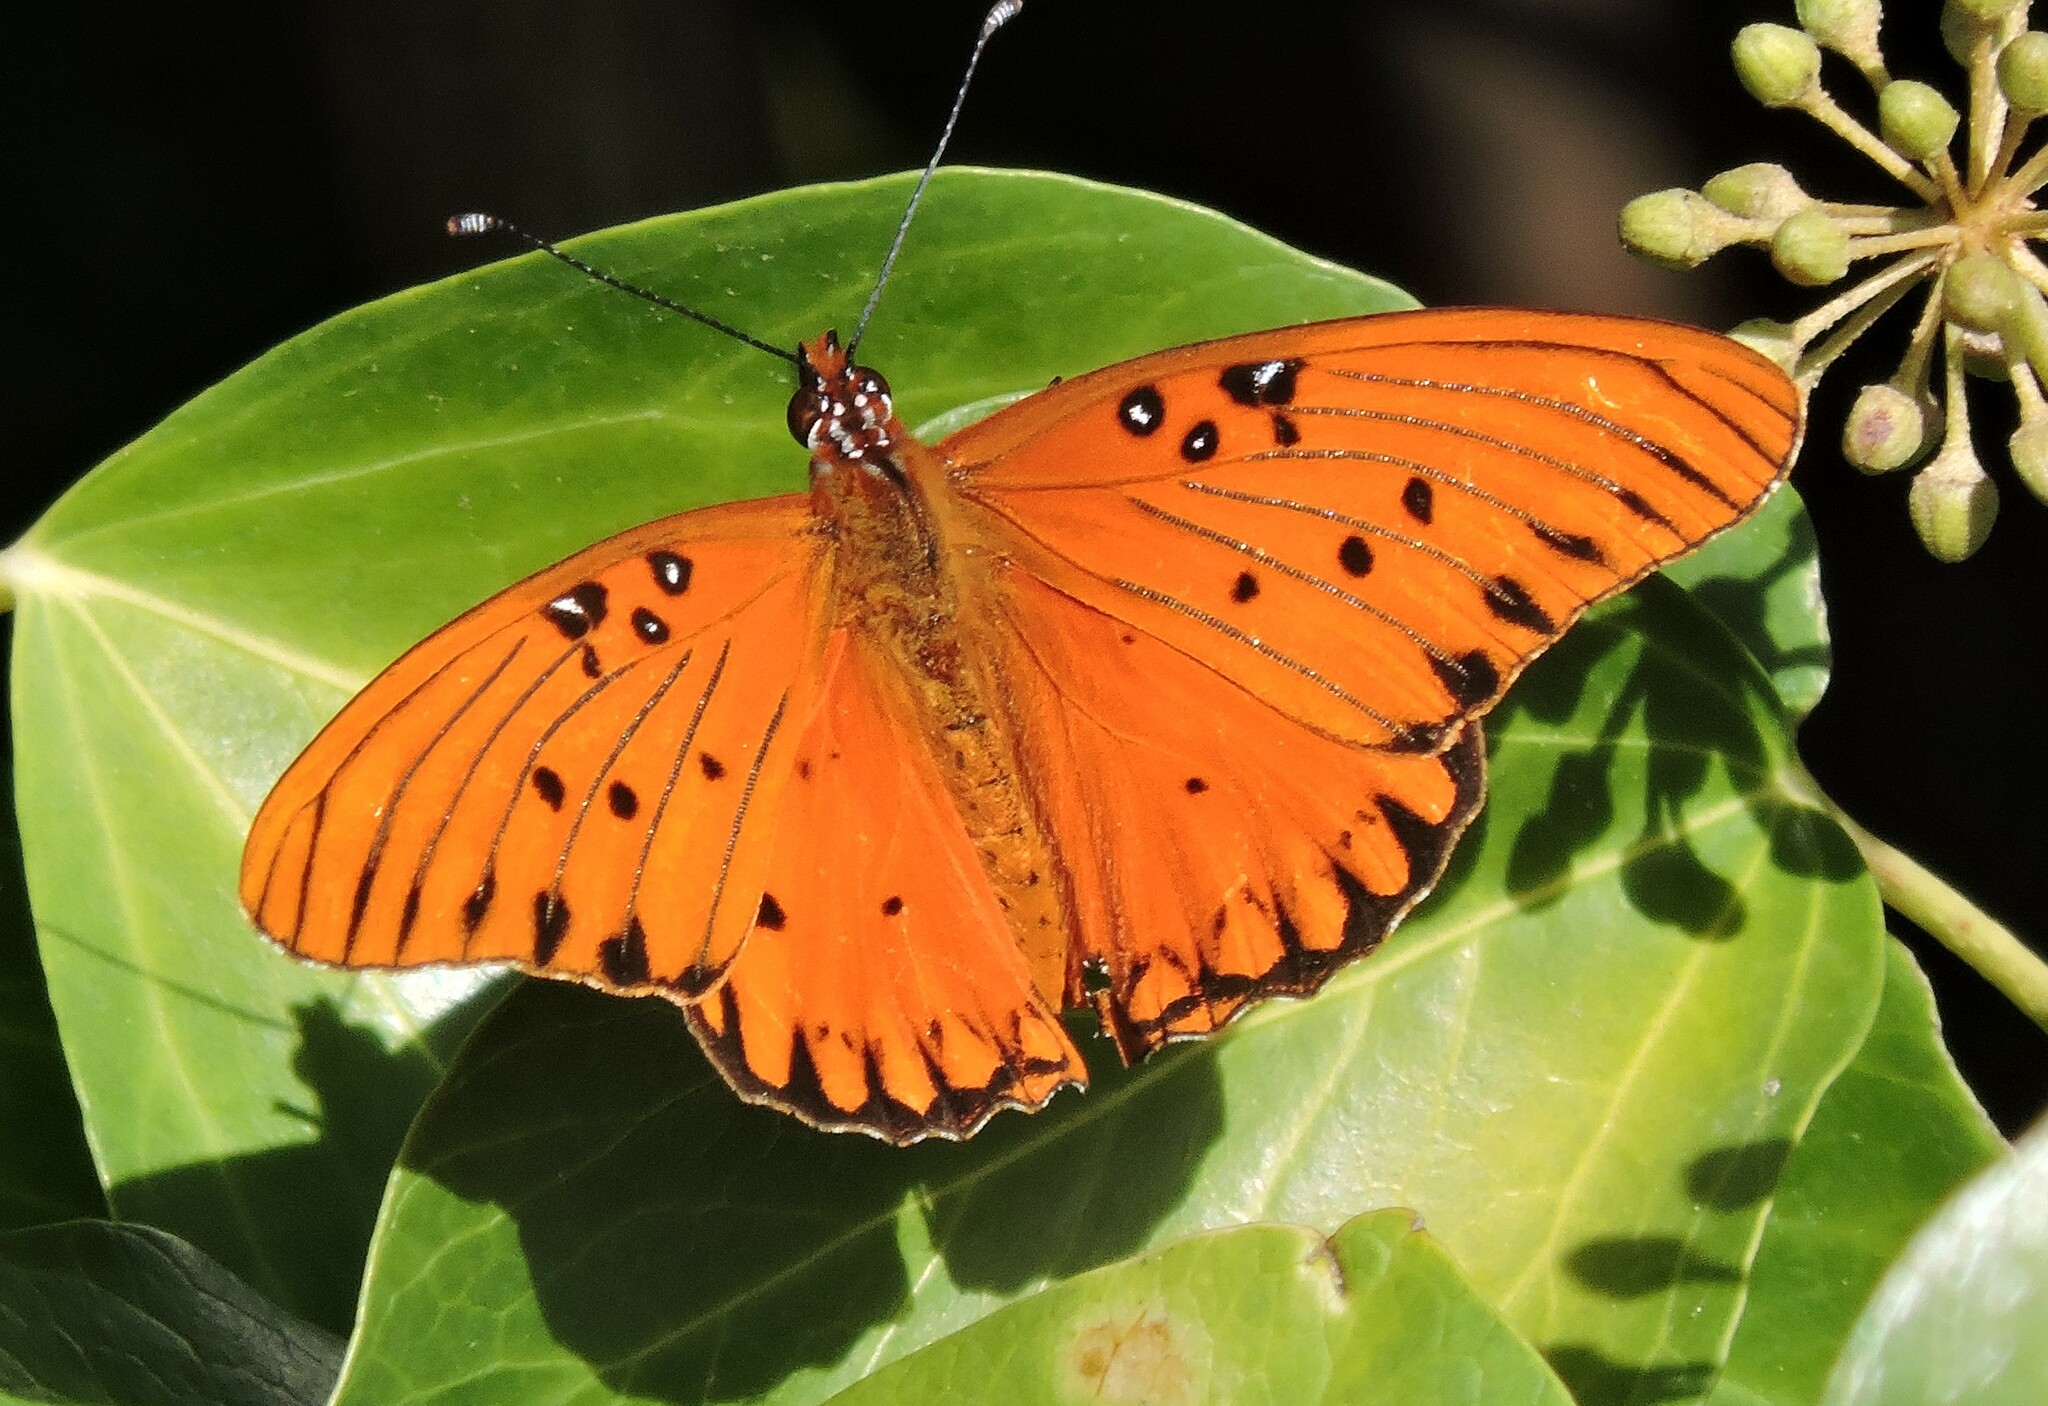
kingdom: Animalia
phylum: Arthropoda
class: Insecta
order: Lepidoptera
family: Nymphalidae
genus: Dione
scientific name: Dione vanillae
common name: Gulf fritillary
